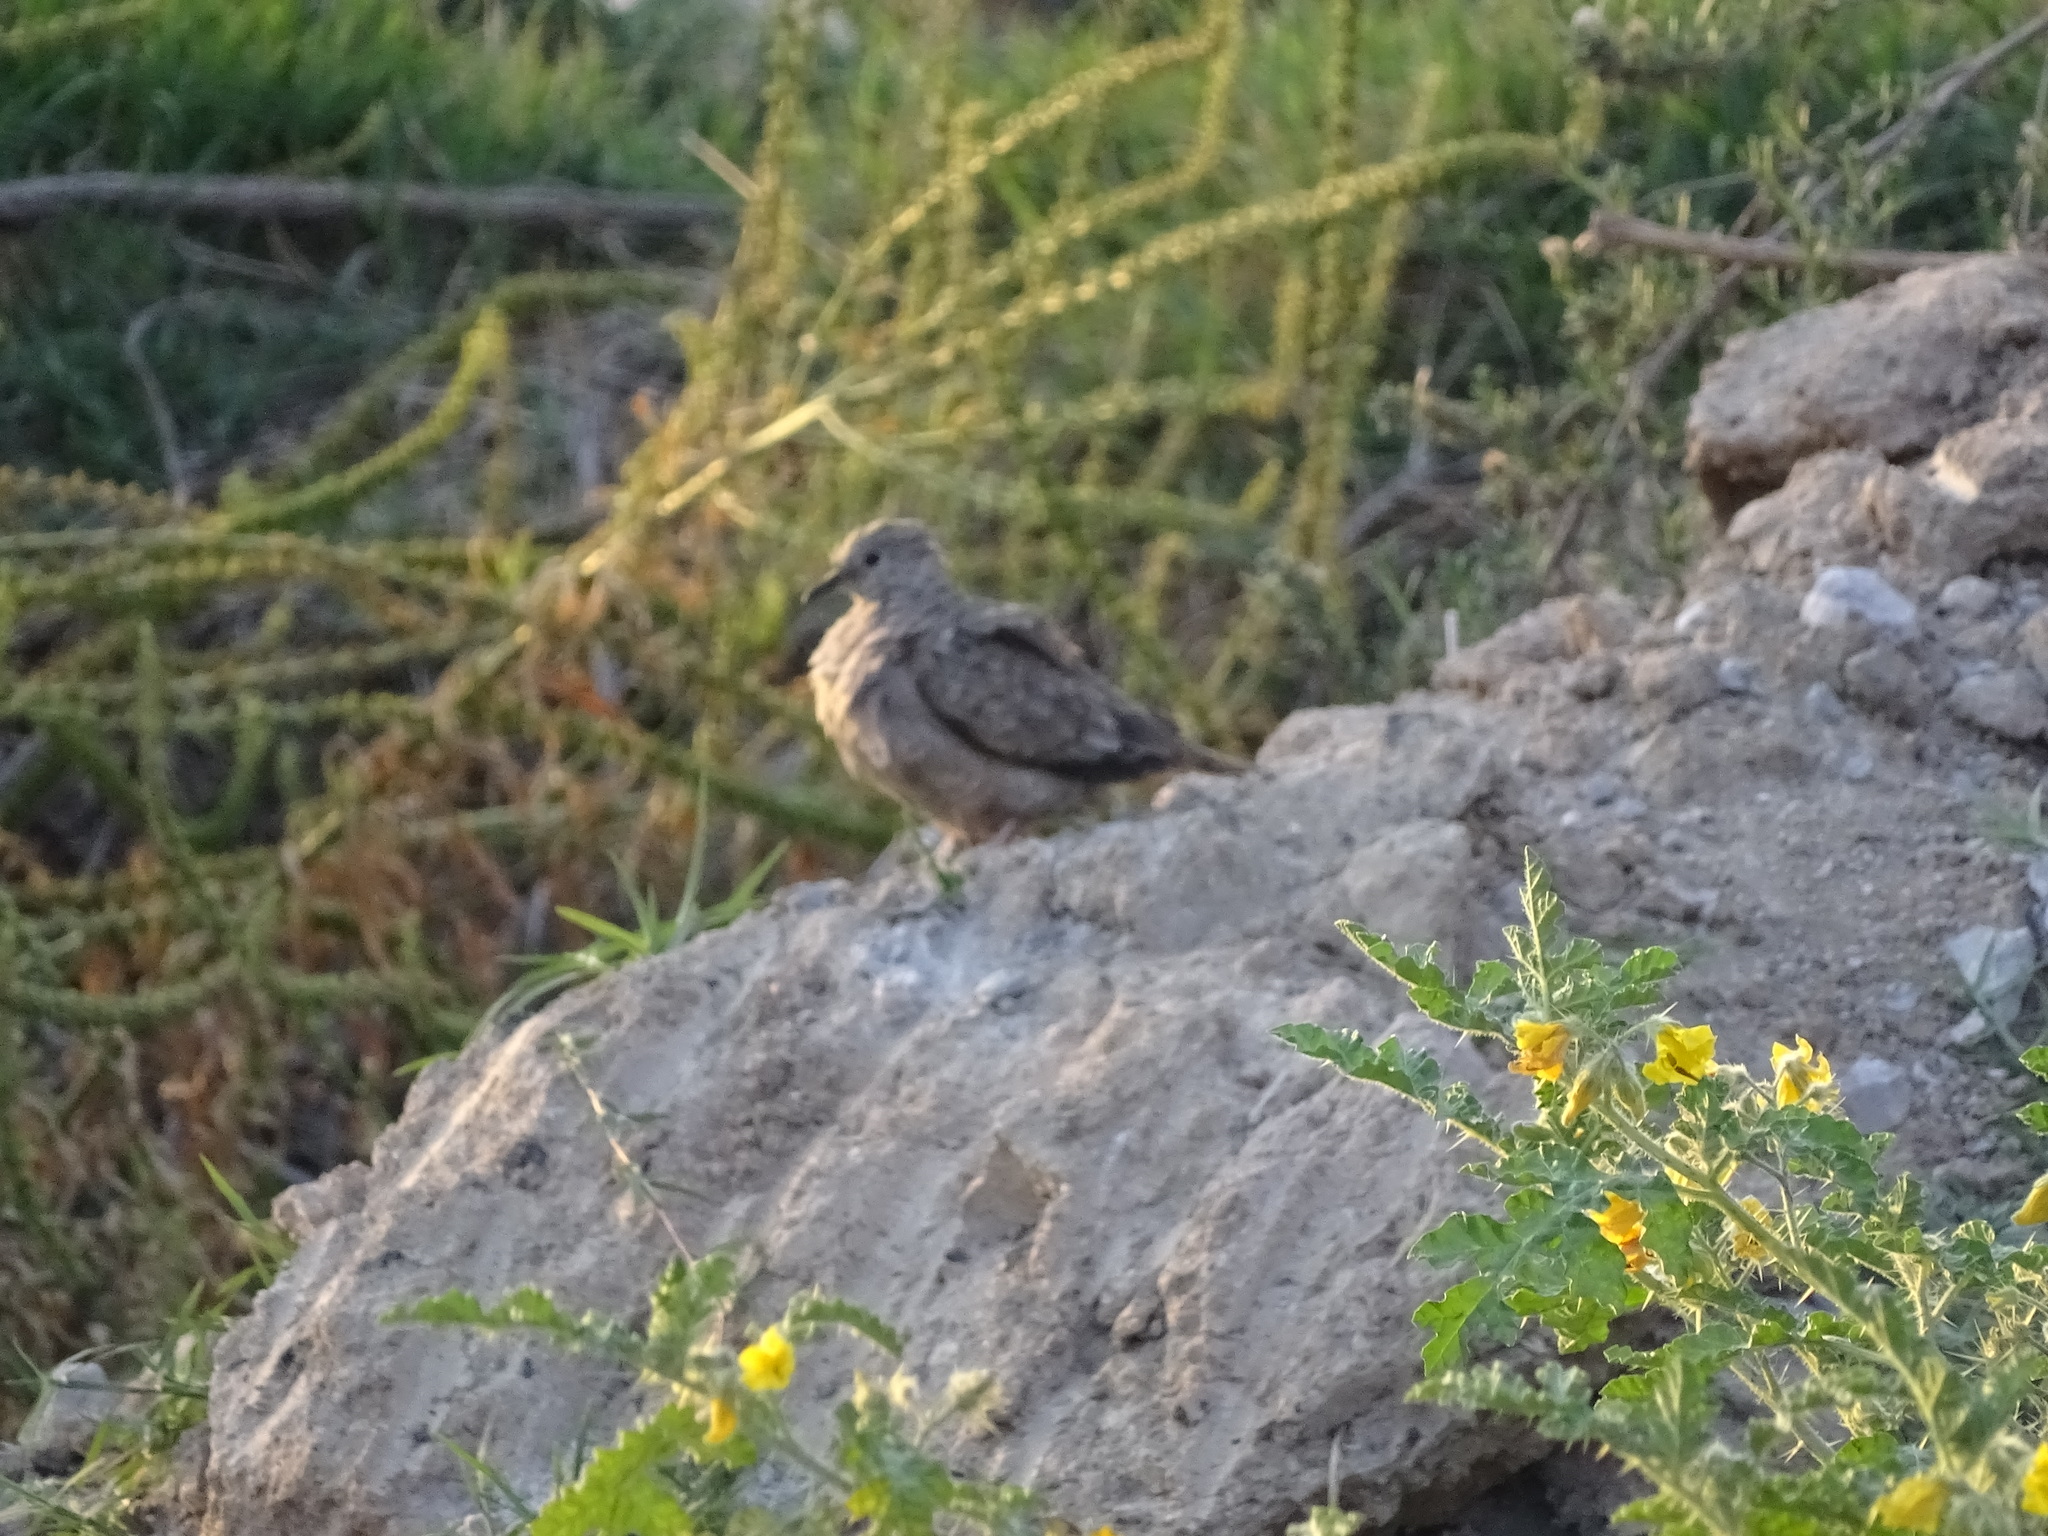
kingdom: Animalia
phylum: Chordata
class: Aves
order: Columbiformes
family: Columbidae
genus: Columbina
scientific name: Columbina inca
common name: Inca dove
